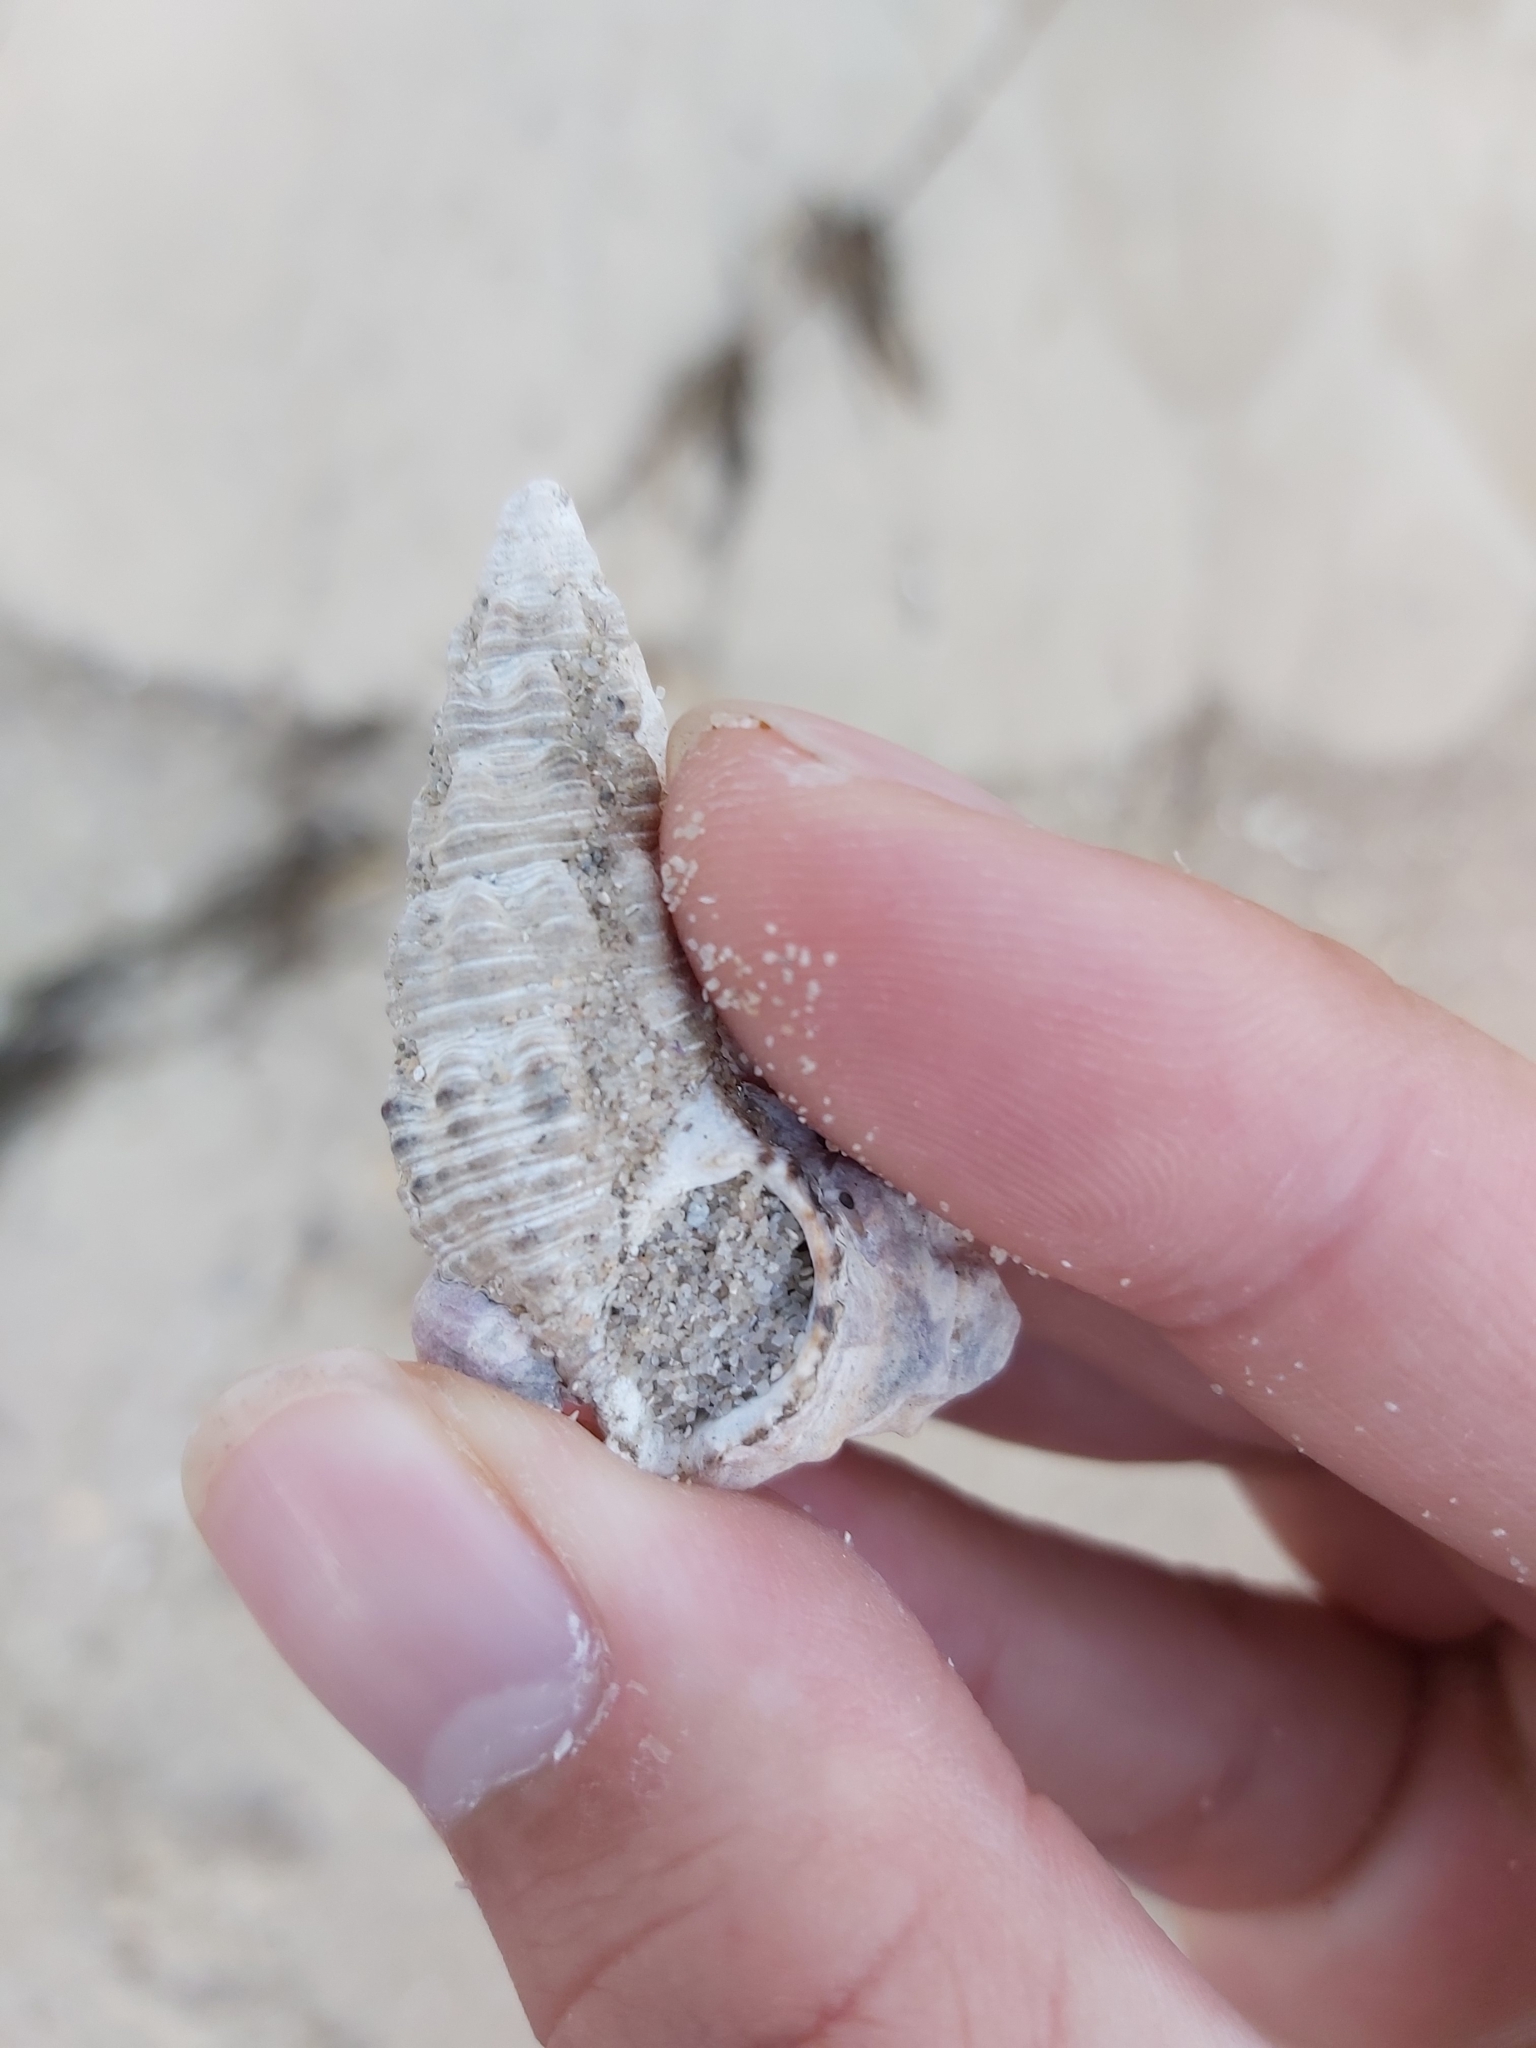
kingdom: Animalia
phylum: Mollusca
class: Gastropoda
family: Batillariidae
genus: Batillaria
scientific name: Batillaria australis
